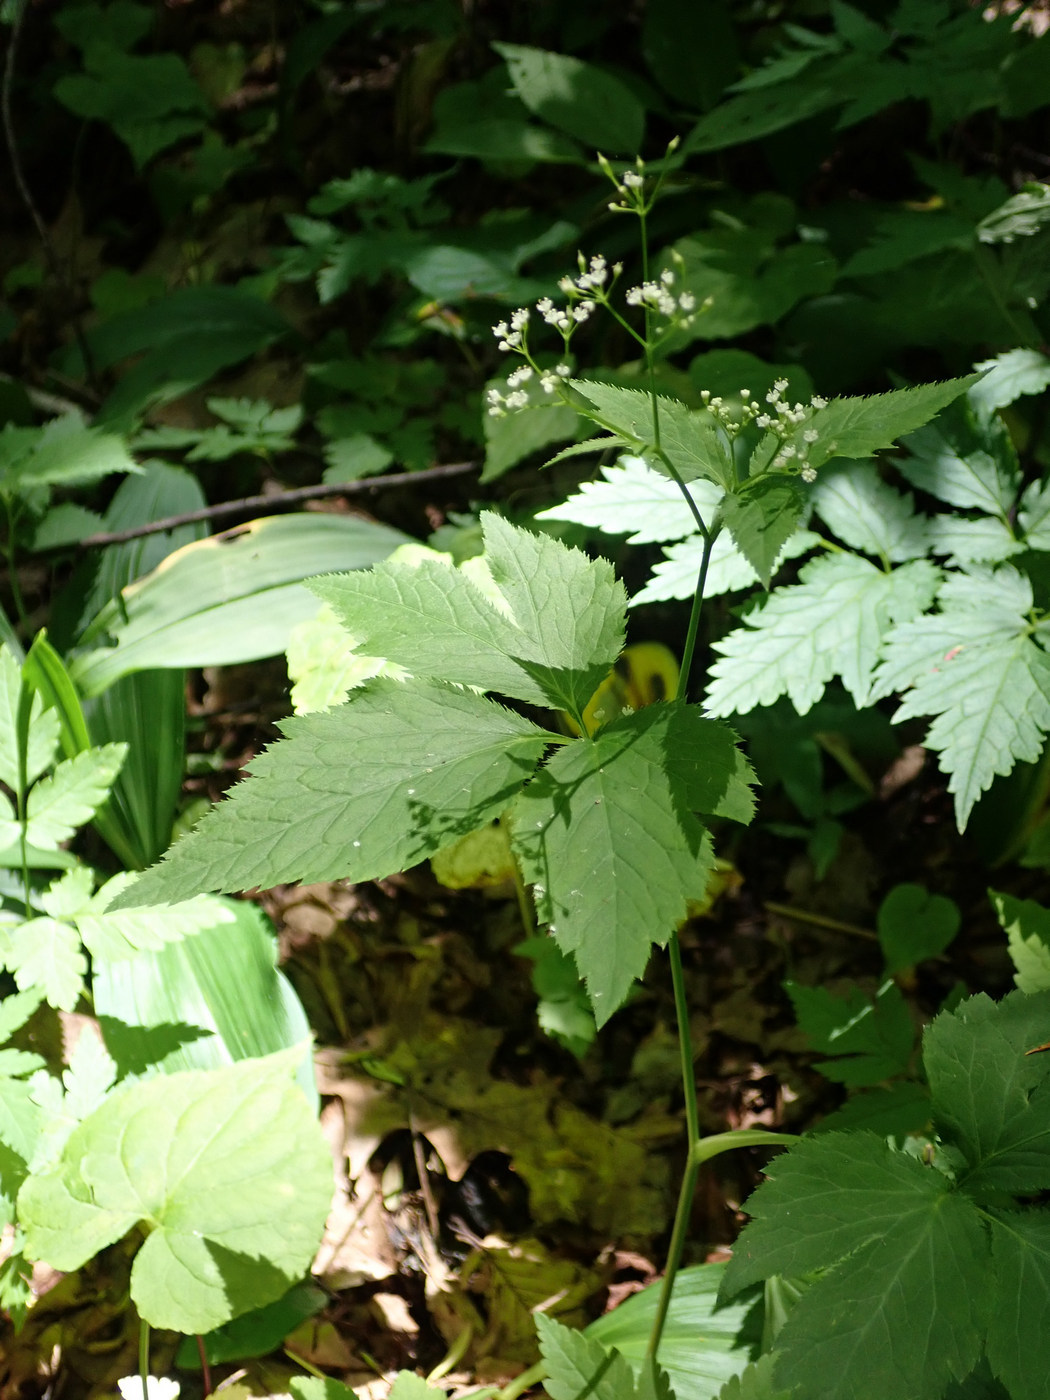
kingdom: Plantae
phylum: Tracheophyta
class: Magnoliopsida
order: Apiales
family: Apiaceae
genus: Cryptotaenia
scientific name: Cryptotaenia canadensis
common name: Honewort
